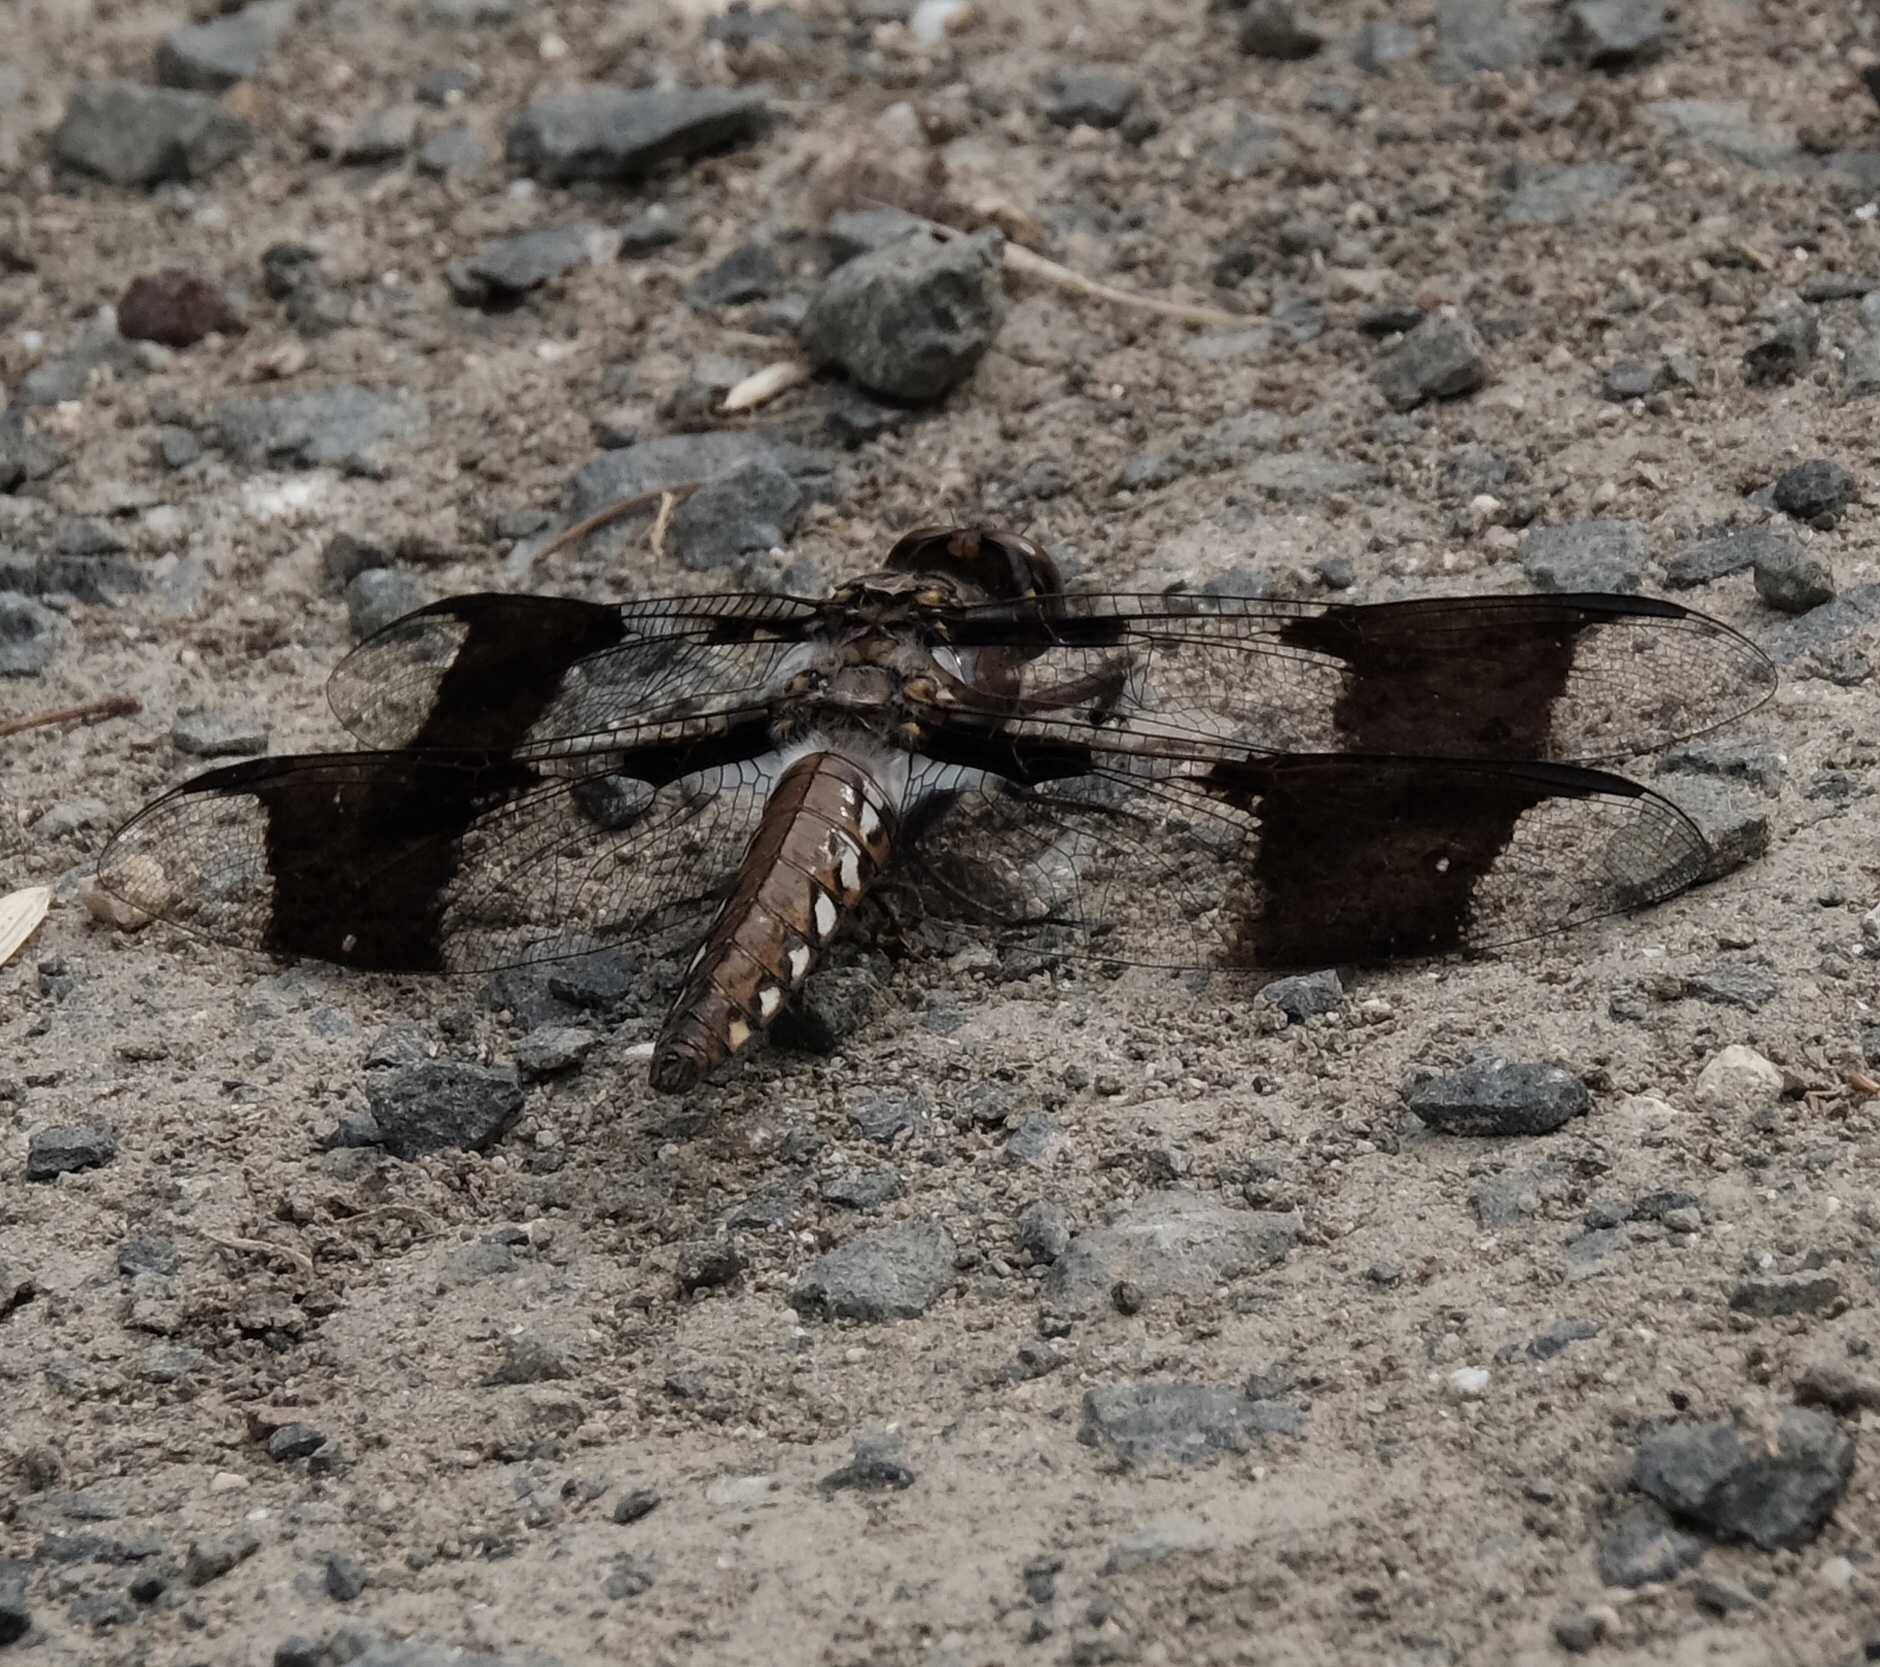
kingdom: Animalia
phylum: Arthropoda
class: Insecta
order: Odonata
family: Libellulidae
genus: Plathemis
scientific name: Plathemis lydia
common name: Common whitetail
